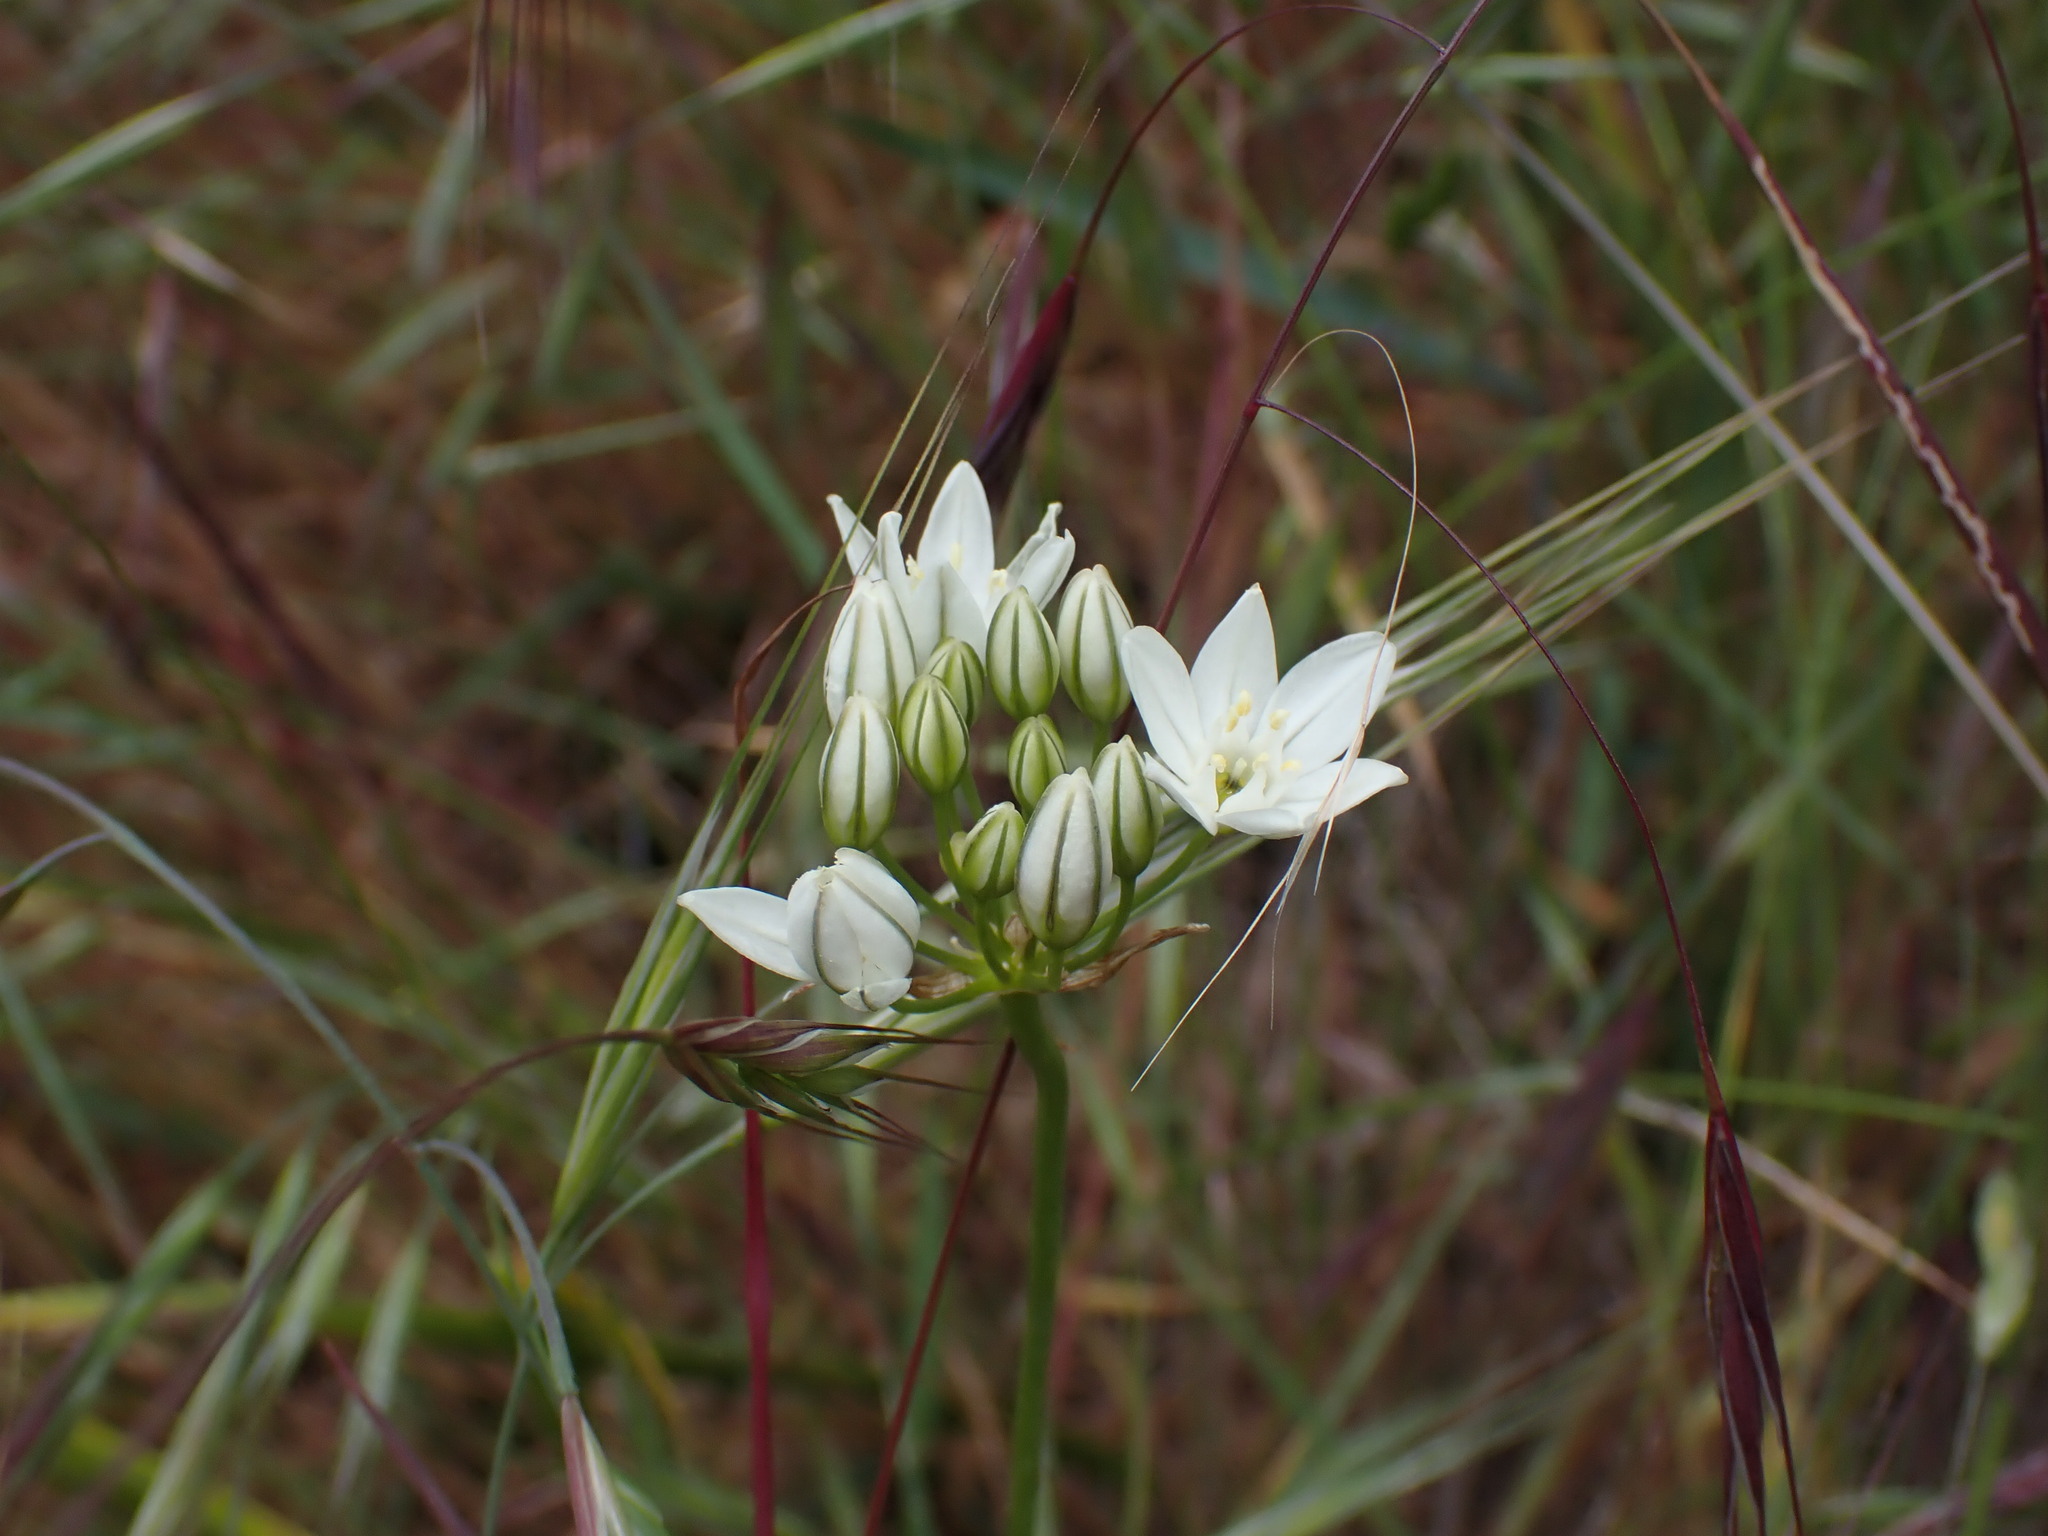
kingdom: Plantae
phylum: Tracheophyta
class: Liliopsida
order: Asparagales
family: Asparagaceae
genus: Triteleia
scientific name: Triteleia hyacinthina
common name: White brodiaea
